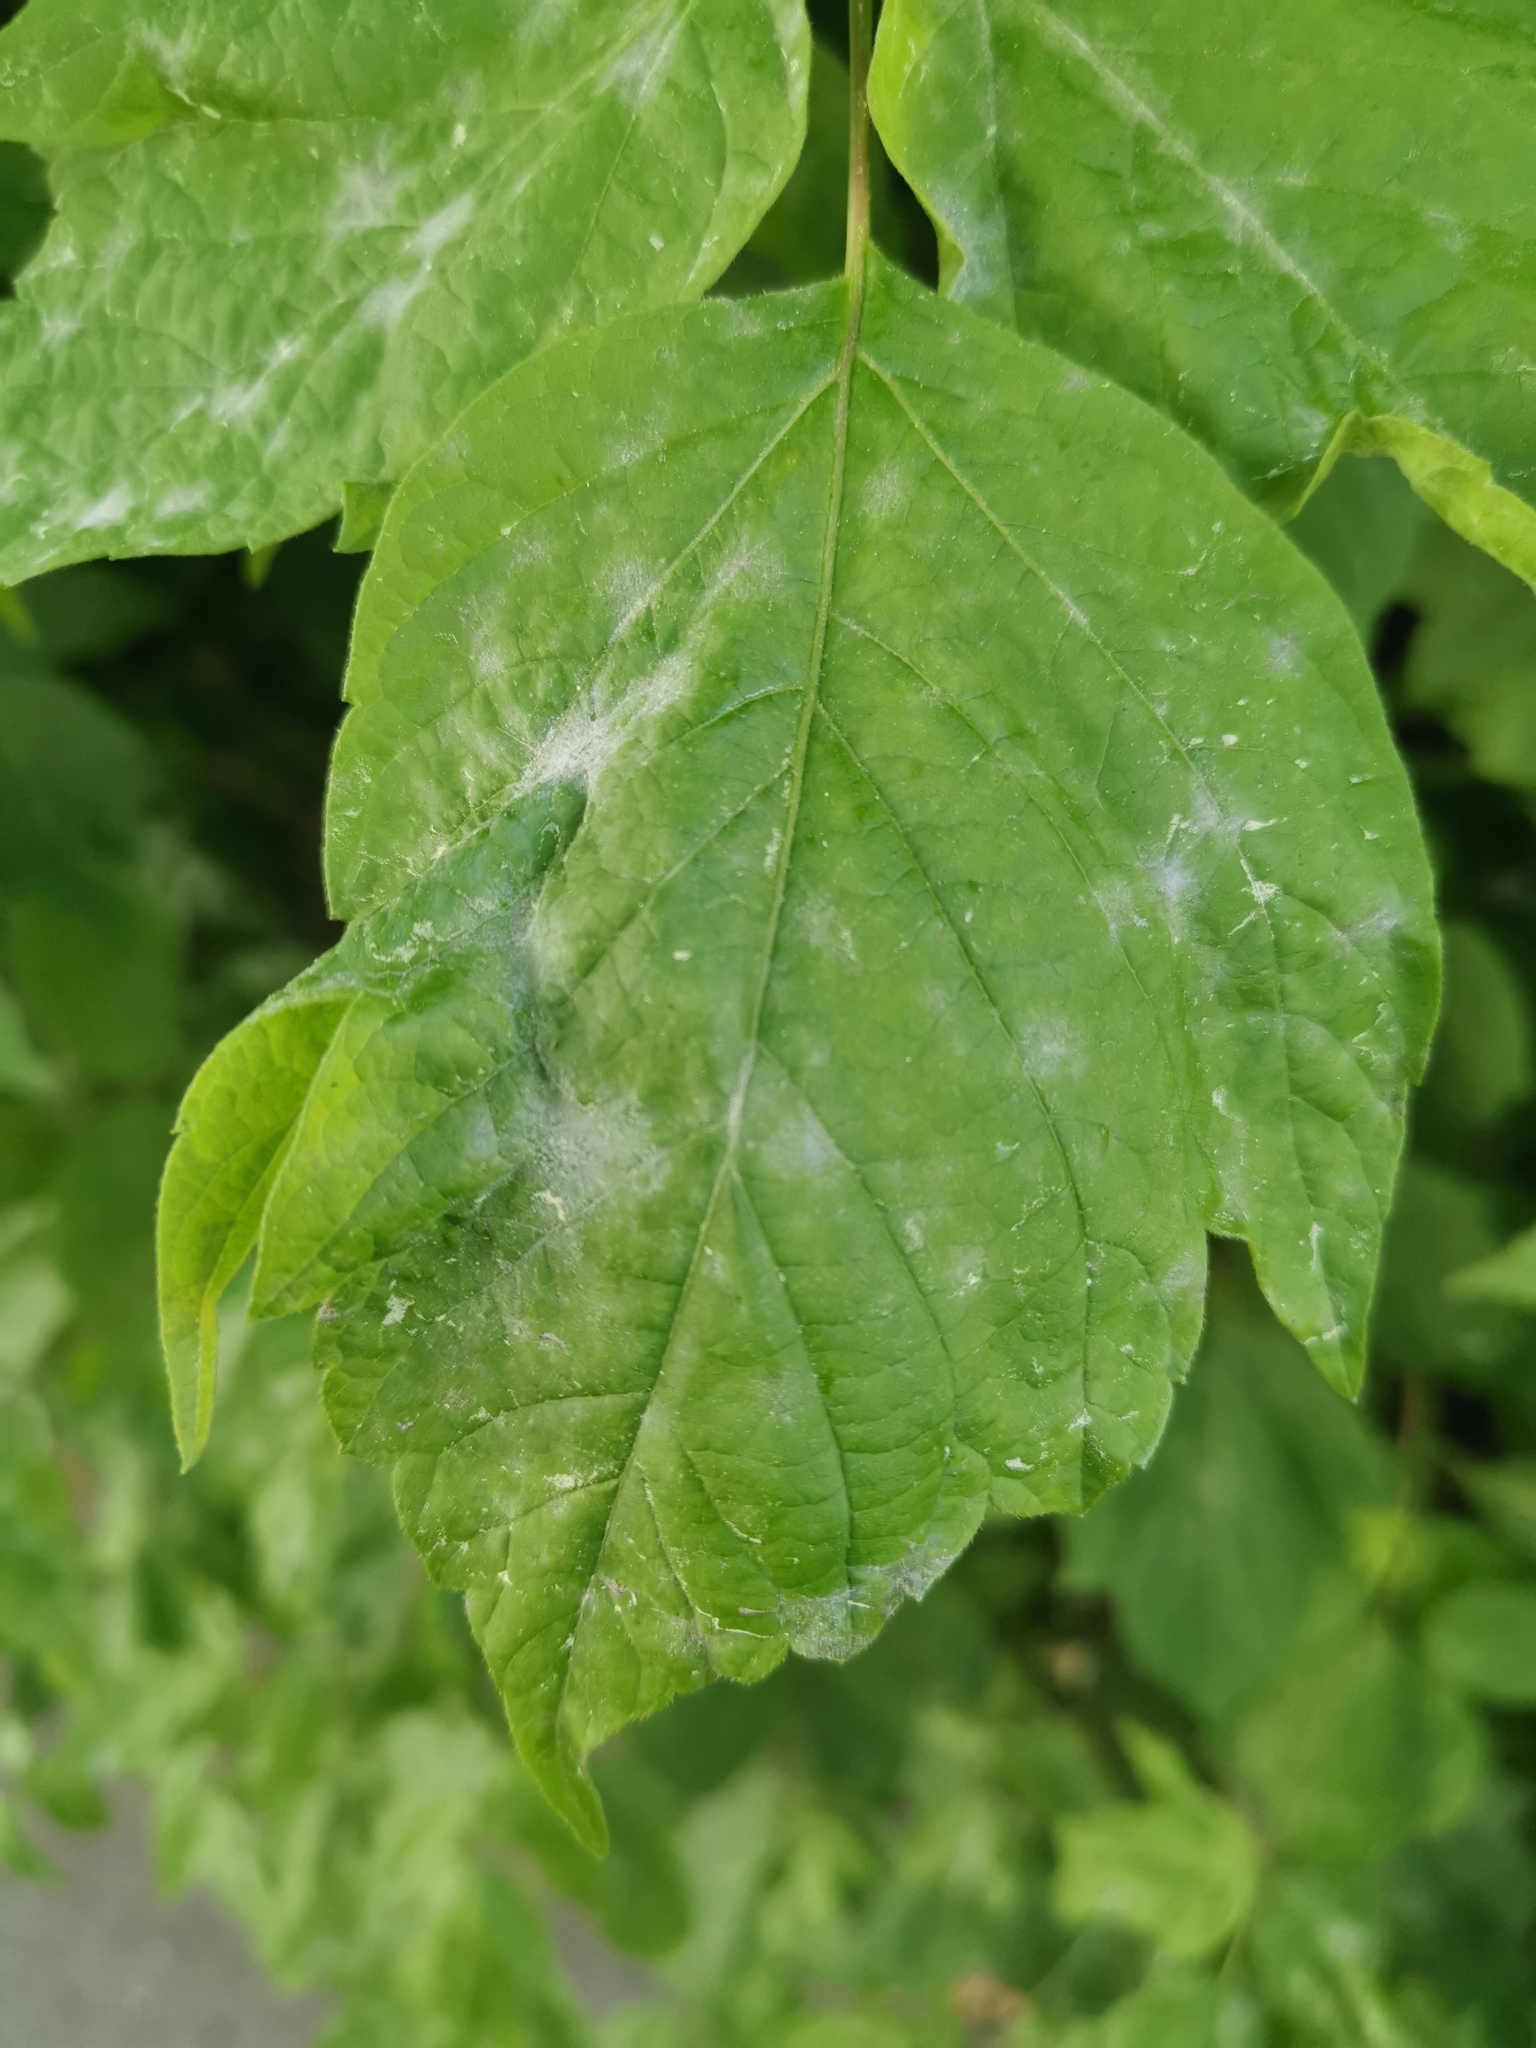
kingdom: Fungi
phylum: Ascomycota
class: Leotiomycetes
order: Helotiales
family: Erysiphaceae
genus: Sawadaea
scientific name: Sawadaea bicornis
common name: Maple mildew
